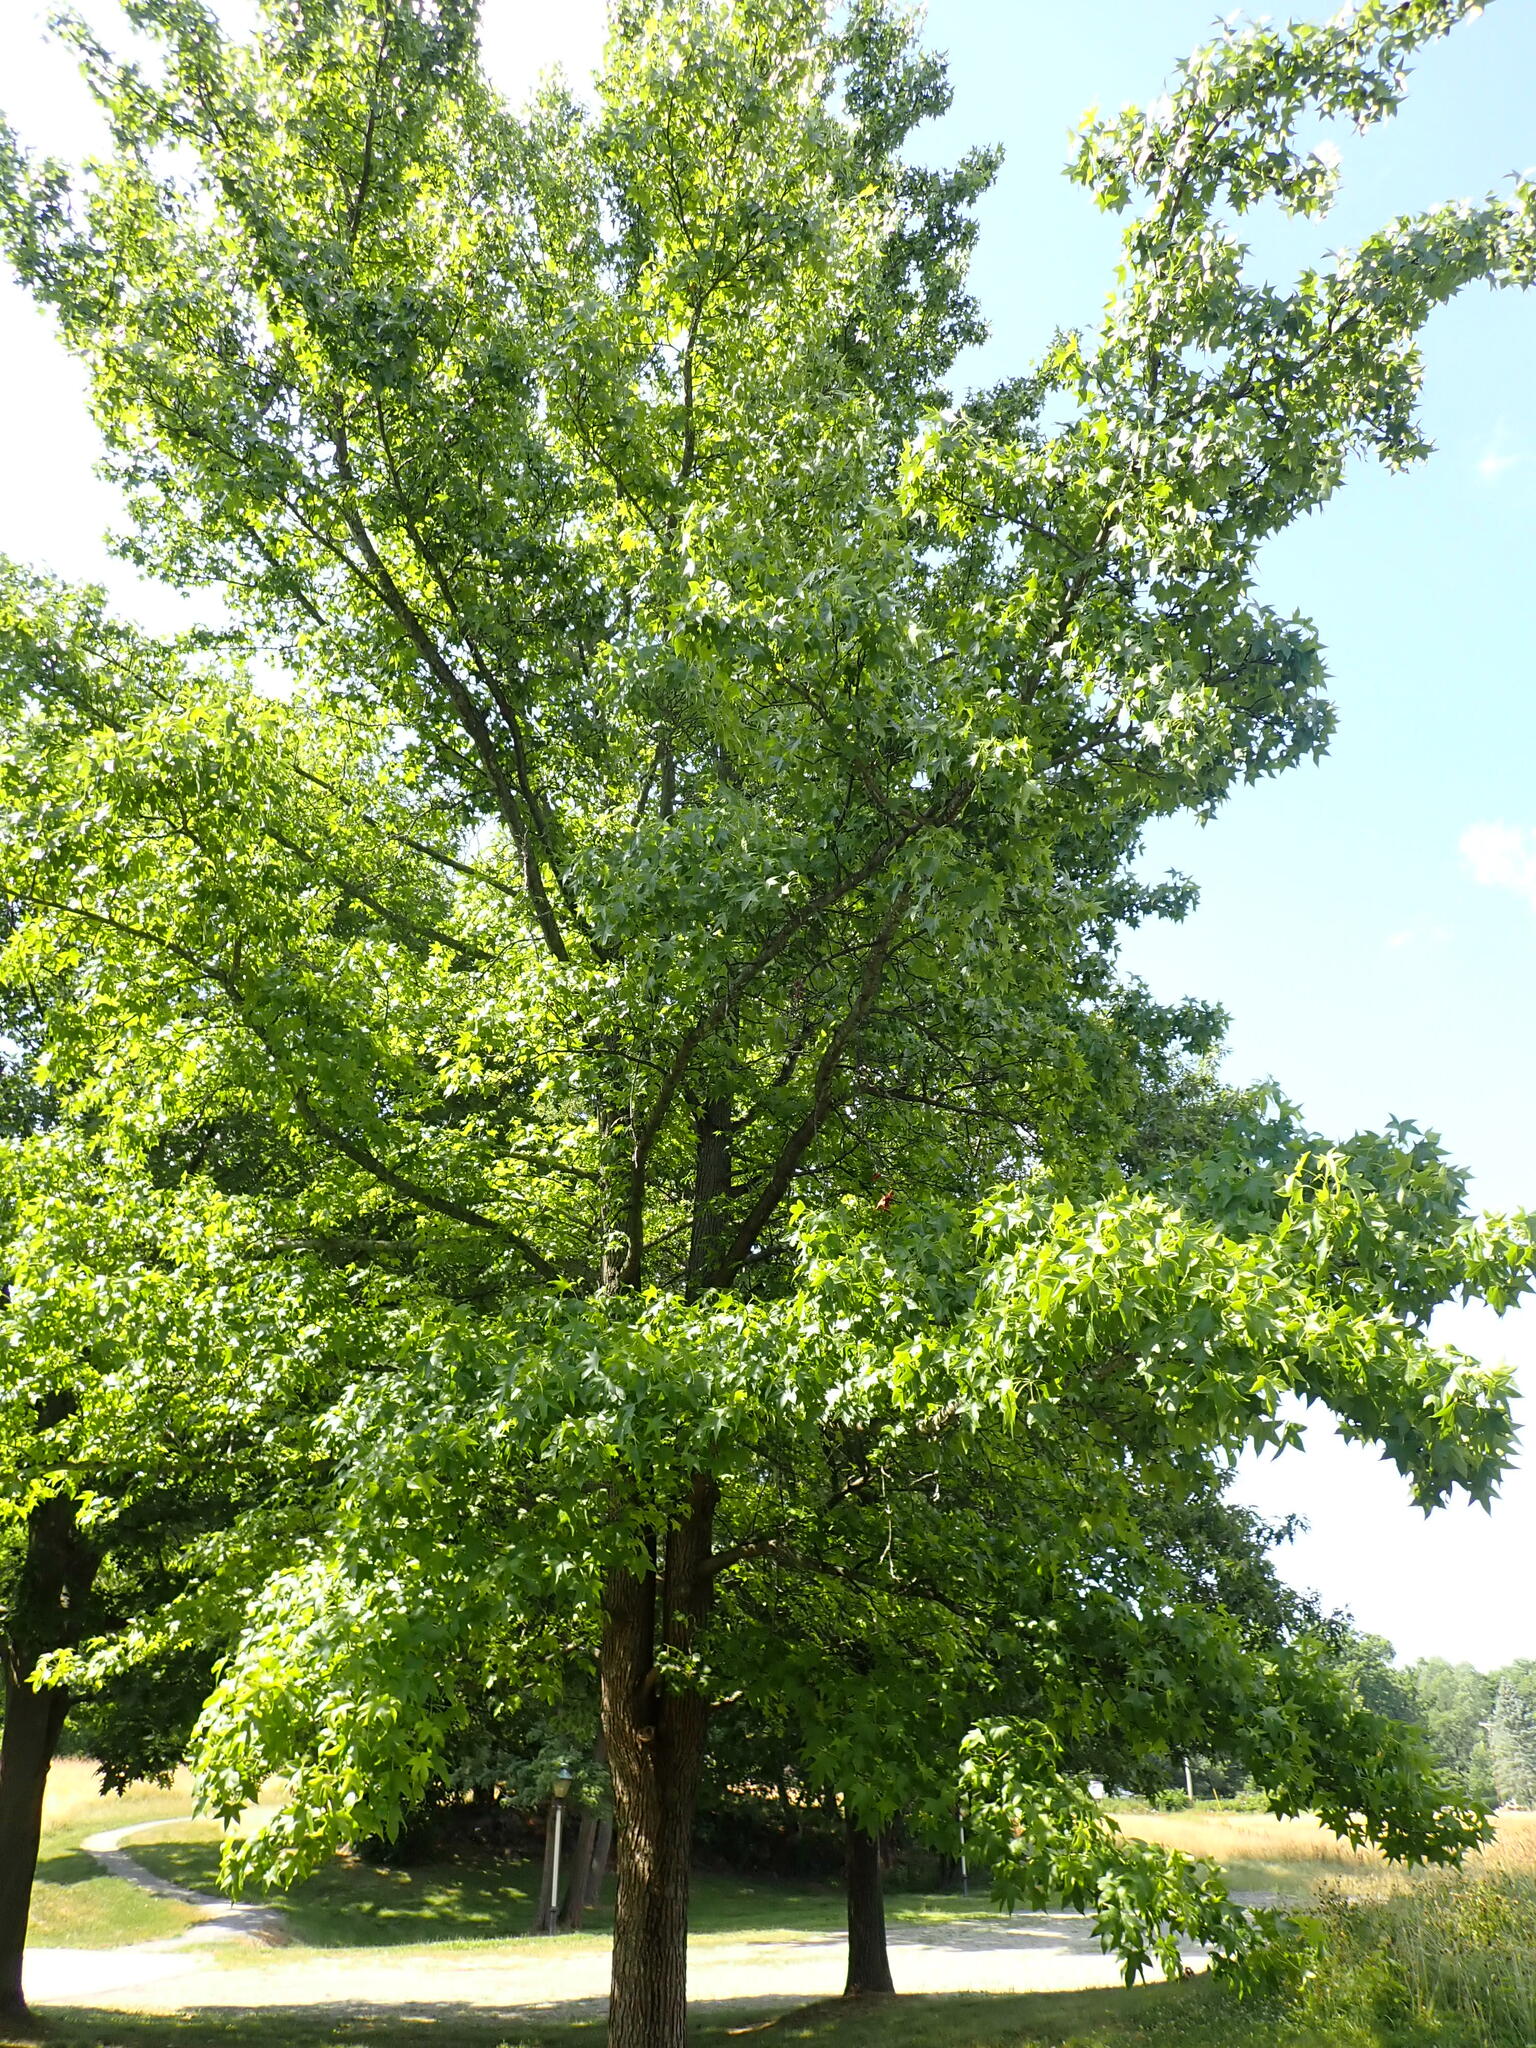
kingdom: Plantae
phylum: Tracheophyta
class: Magnoliopsida
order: Saxifragales
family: Altingiaceae
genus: Liquidambar
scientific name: Liquidambar styraciflua
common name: Sweet gum
